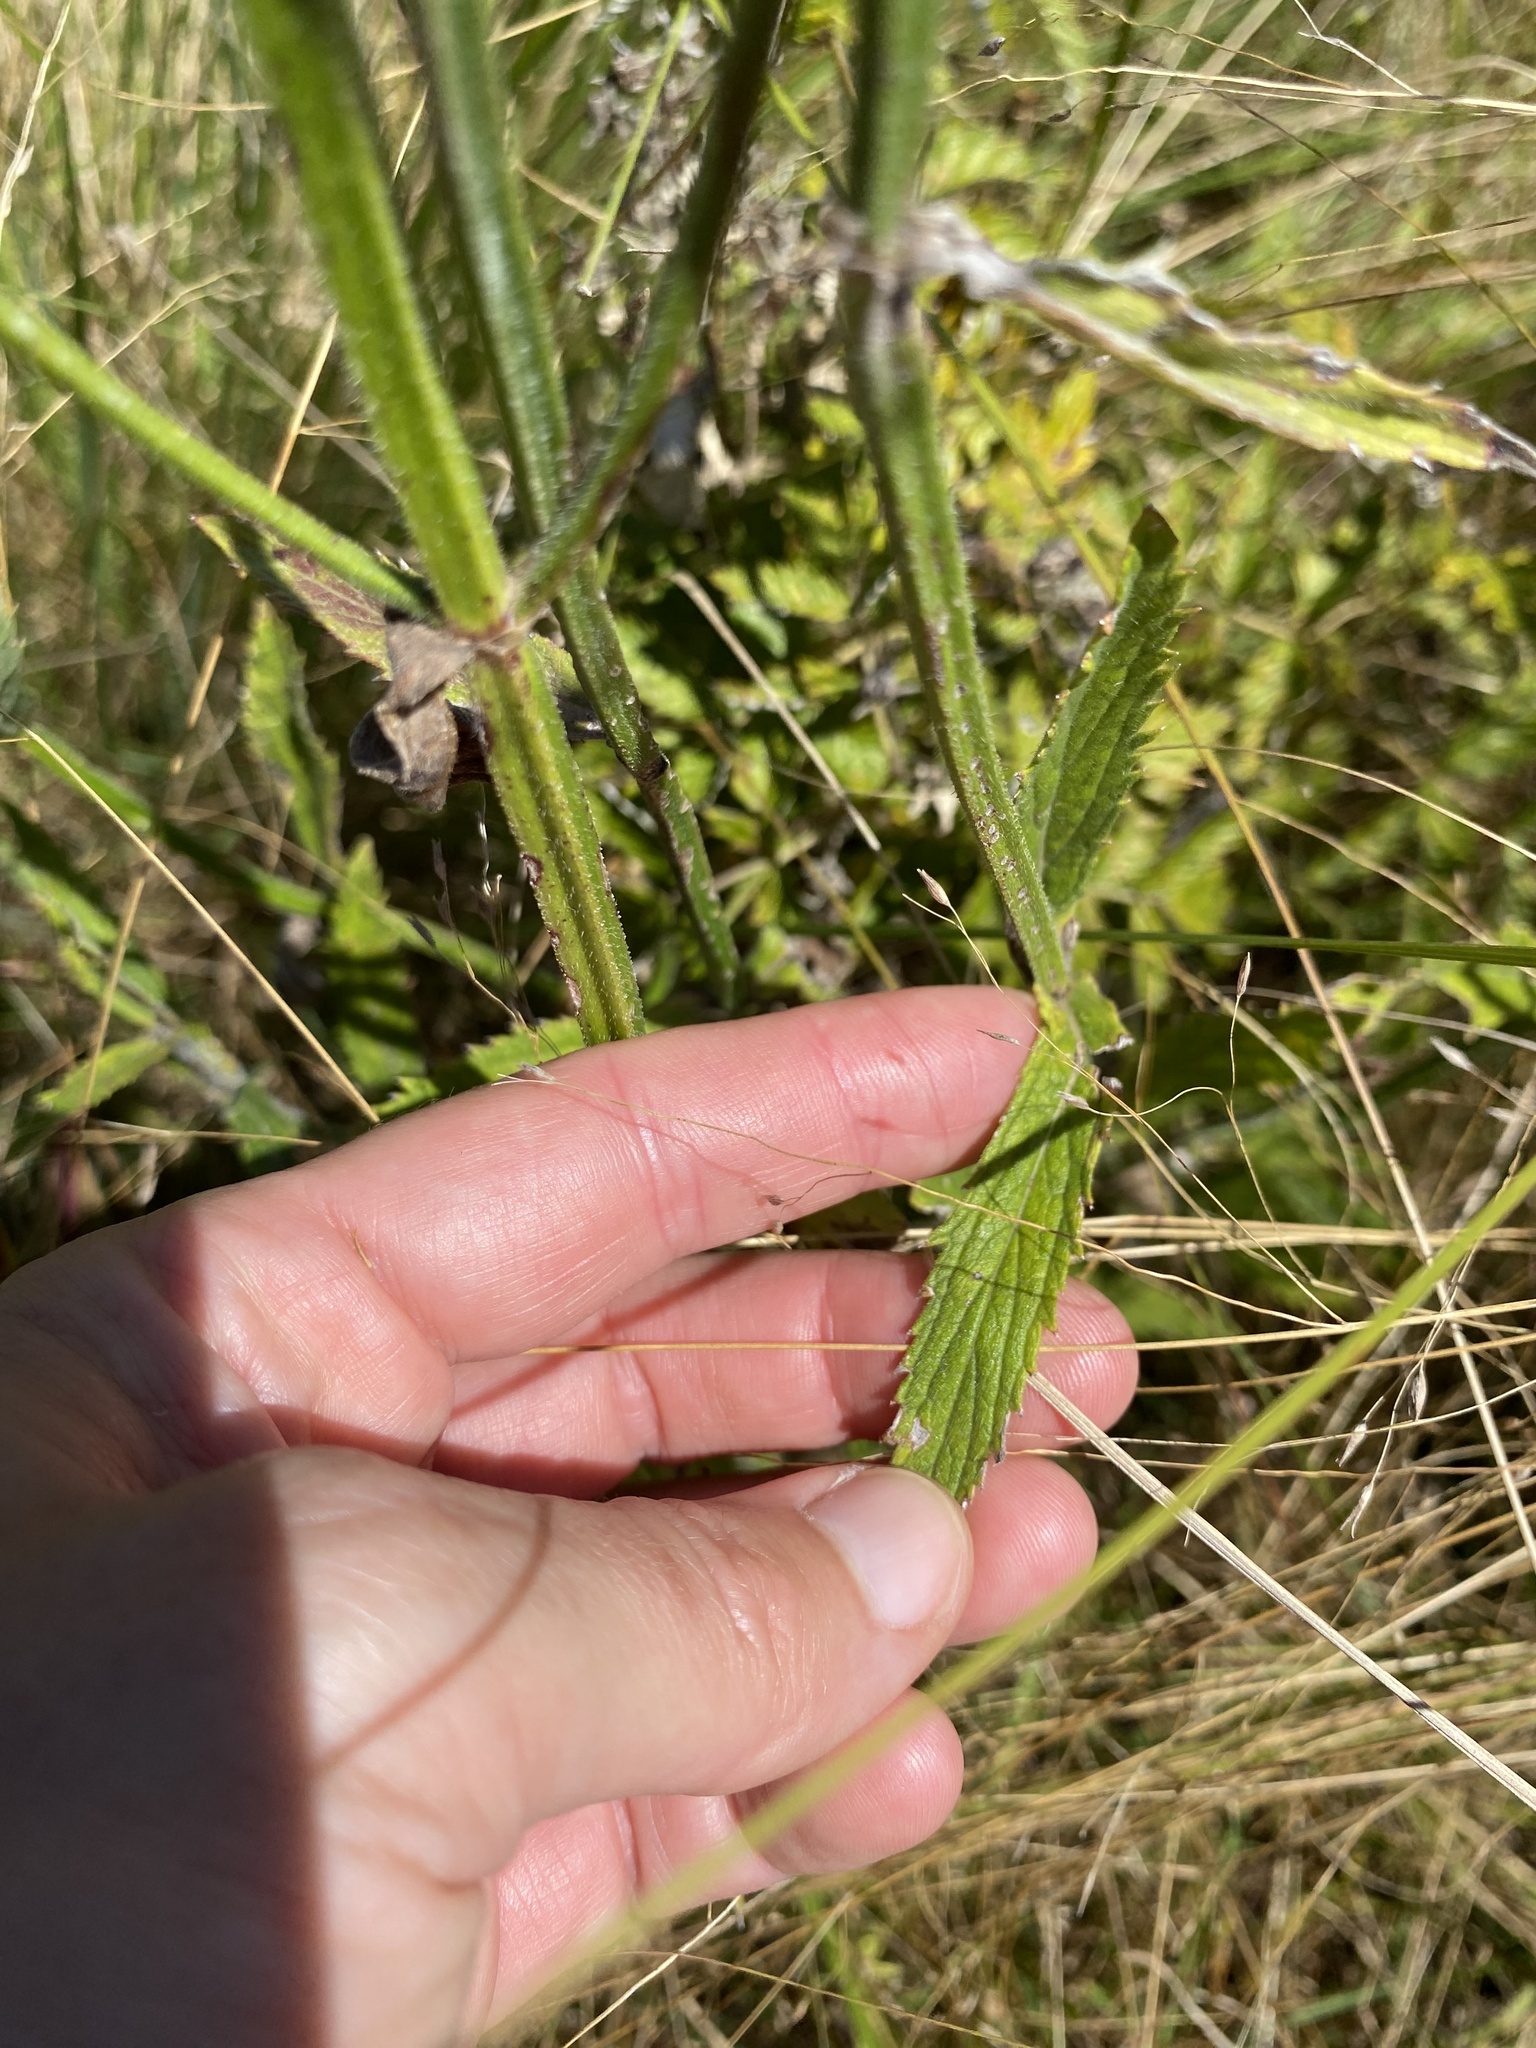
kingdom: Plantae
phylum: Tracheophyta
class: Magnoliopsida
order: Lamiales
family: Verbenaceae
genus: Verbena
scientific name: Verbena bonariensis
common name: Purpletop vervain
